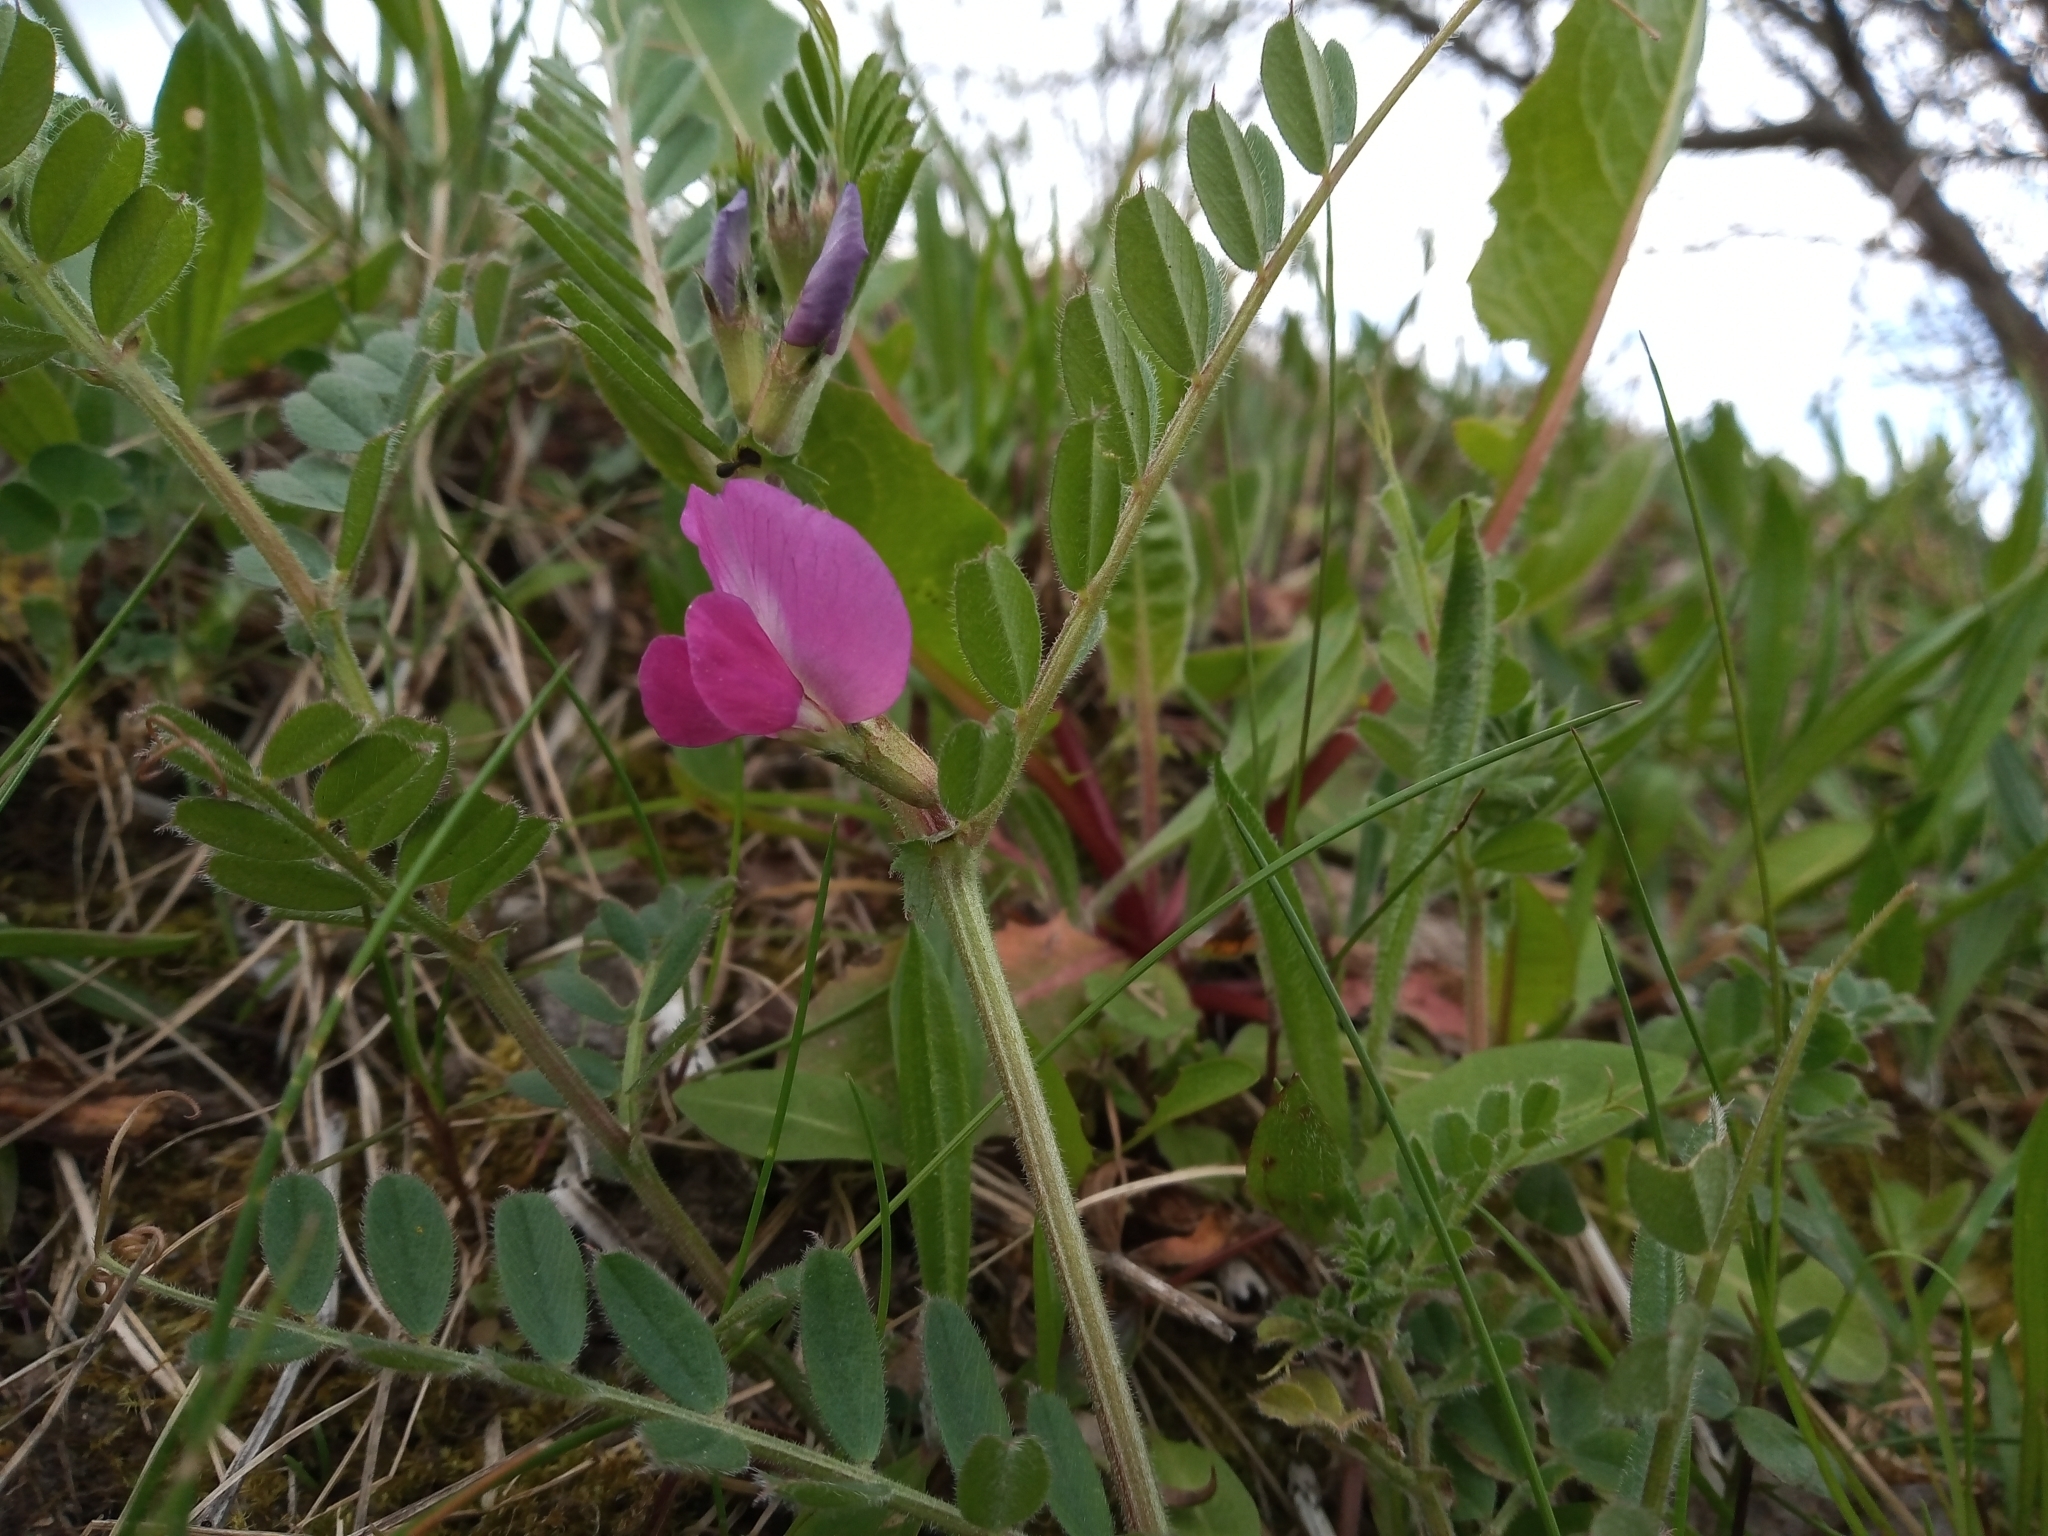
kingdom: Plantae
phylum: Tracheophyta
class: Magnoliopsida
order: Fabales
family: Fabaceae
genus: Vicia
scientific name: Vicia sativa
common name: Garden vetch
